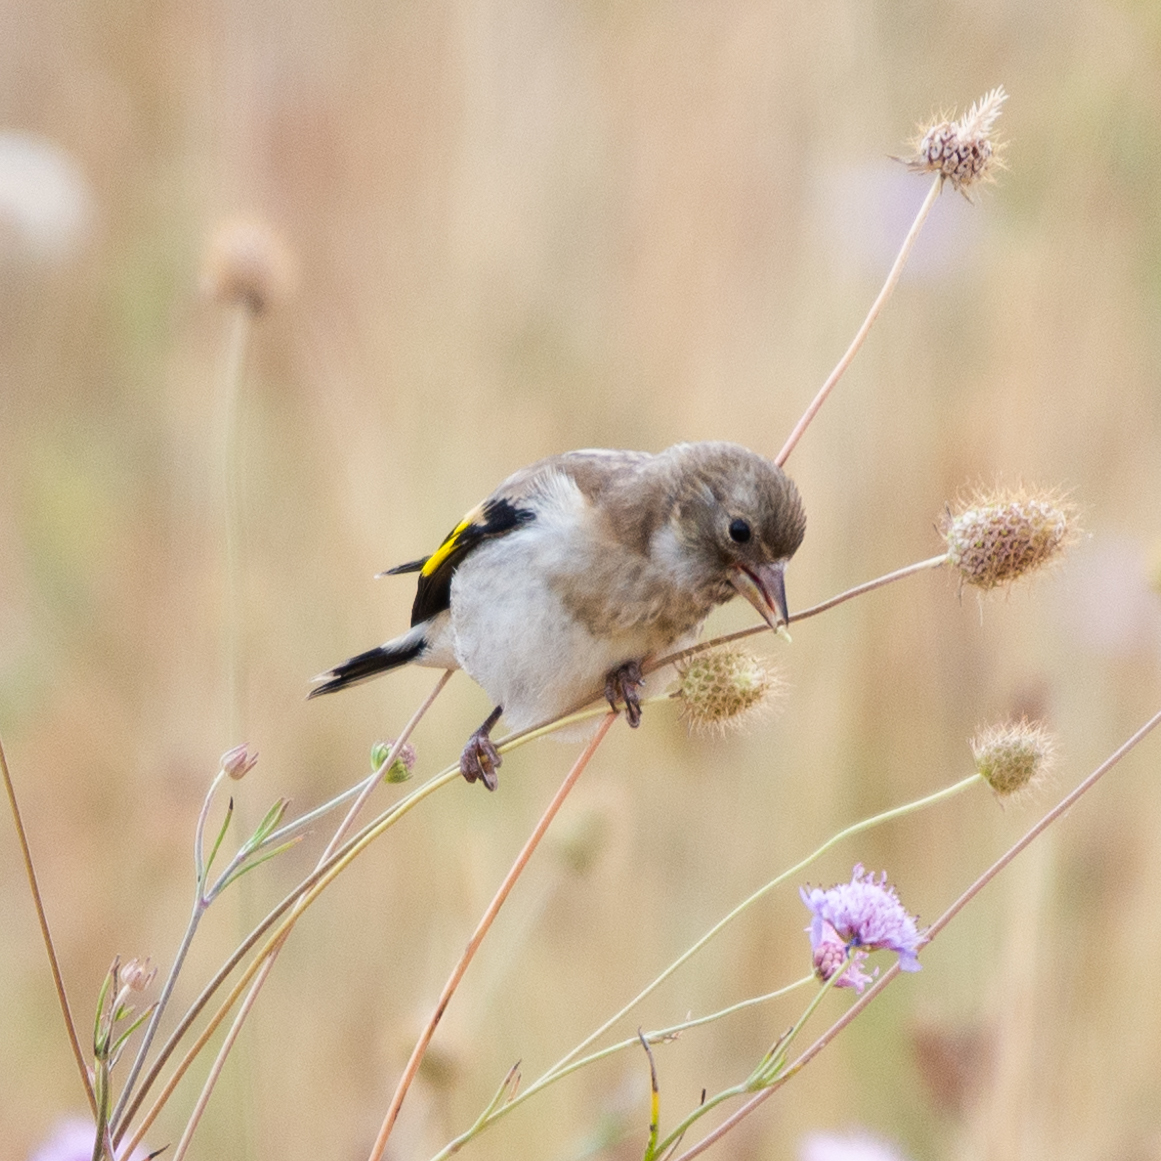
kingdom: Animalia
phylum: Chordata
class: Aves
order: Passeriformes
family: Fringillidae
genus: Carduelis
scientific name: Carduelis carduelis
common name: European goldfinch
